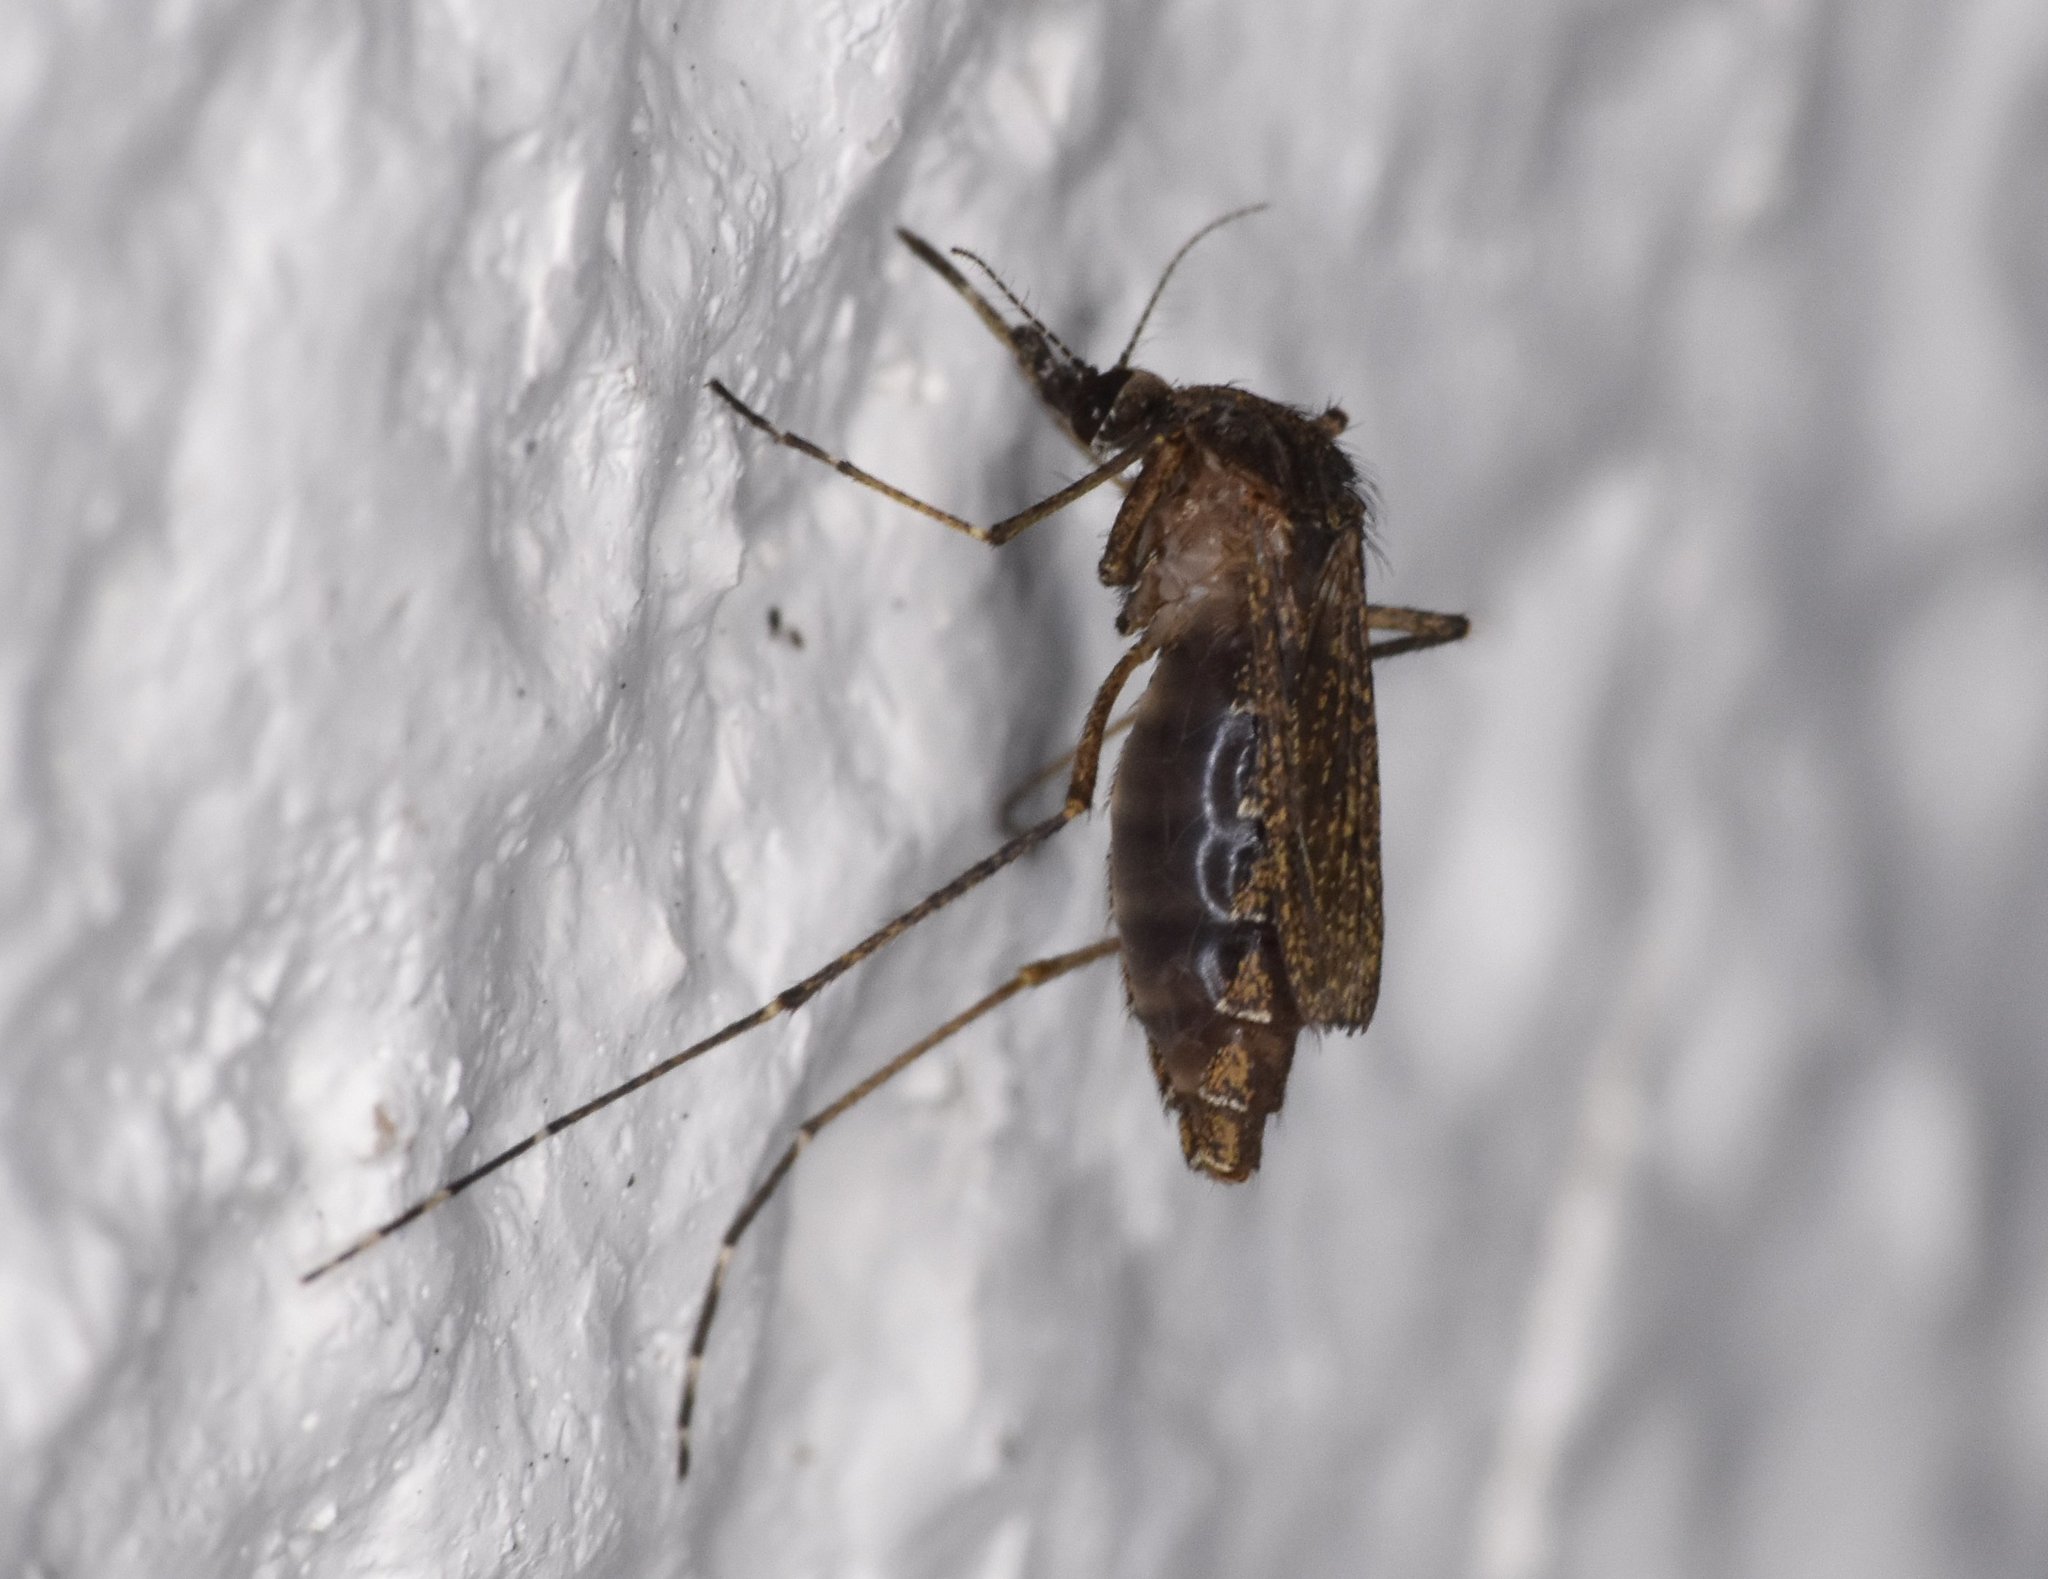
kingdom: Animalia
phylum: Arthropoda
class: Insecta
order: Diptera
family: Culicidae
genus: Mansonia
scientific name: Mansonia dyari
